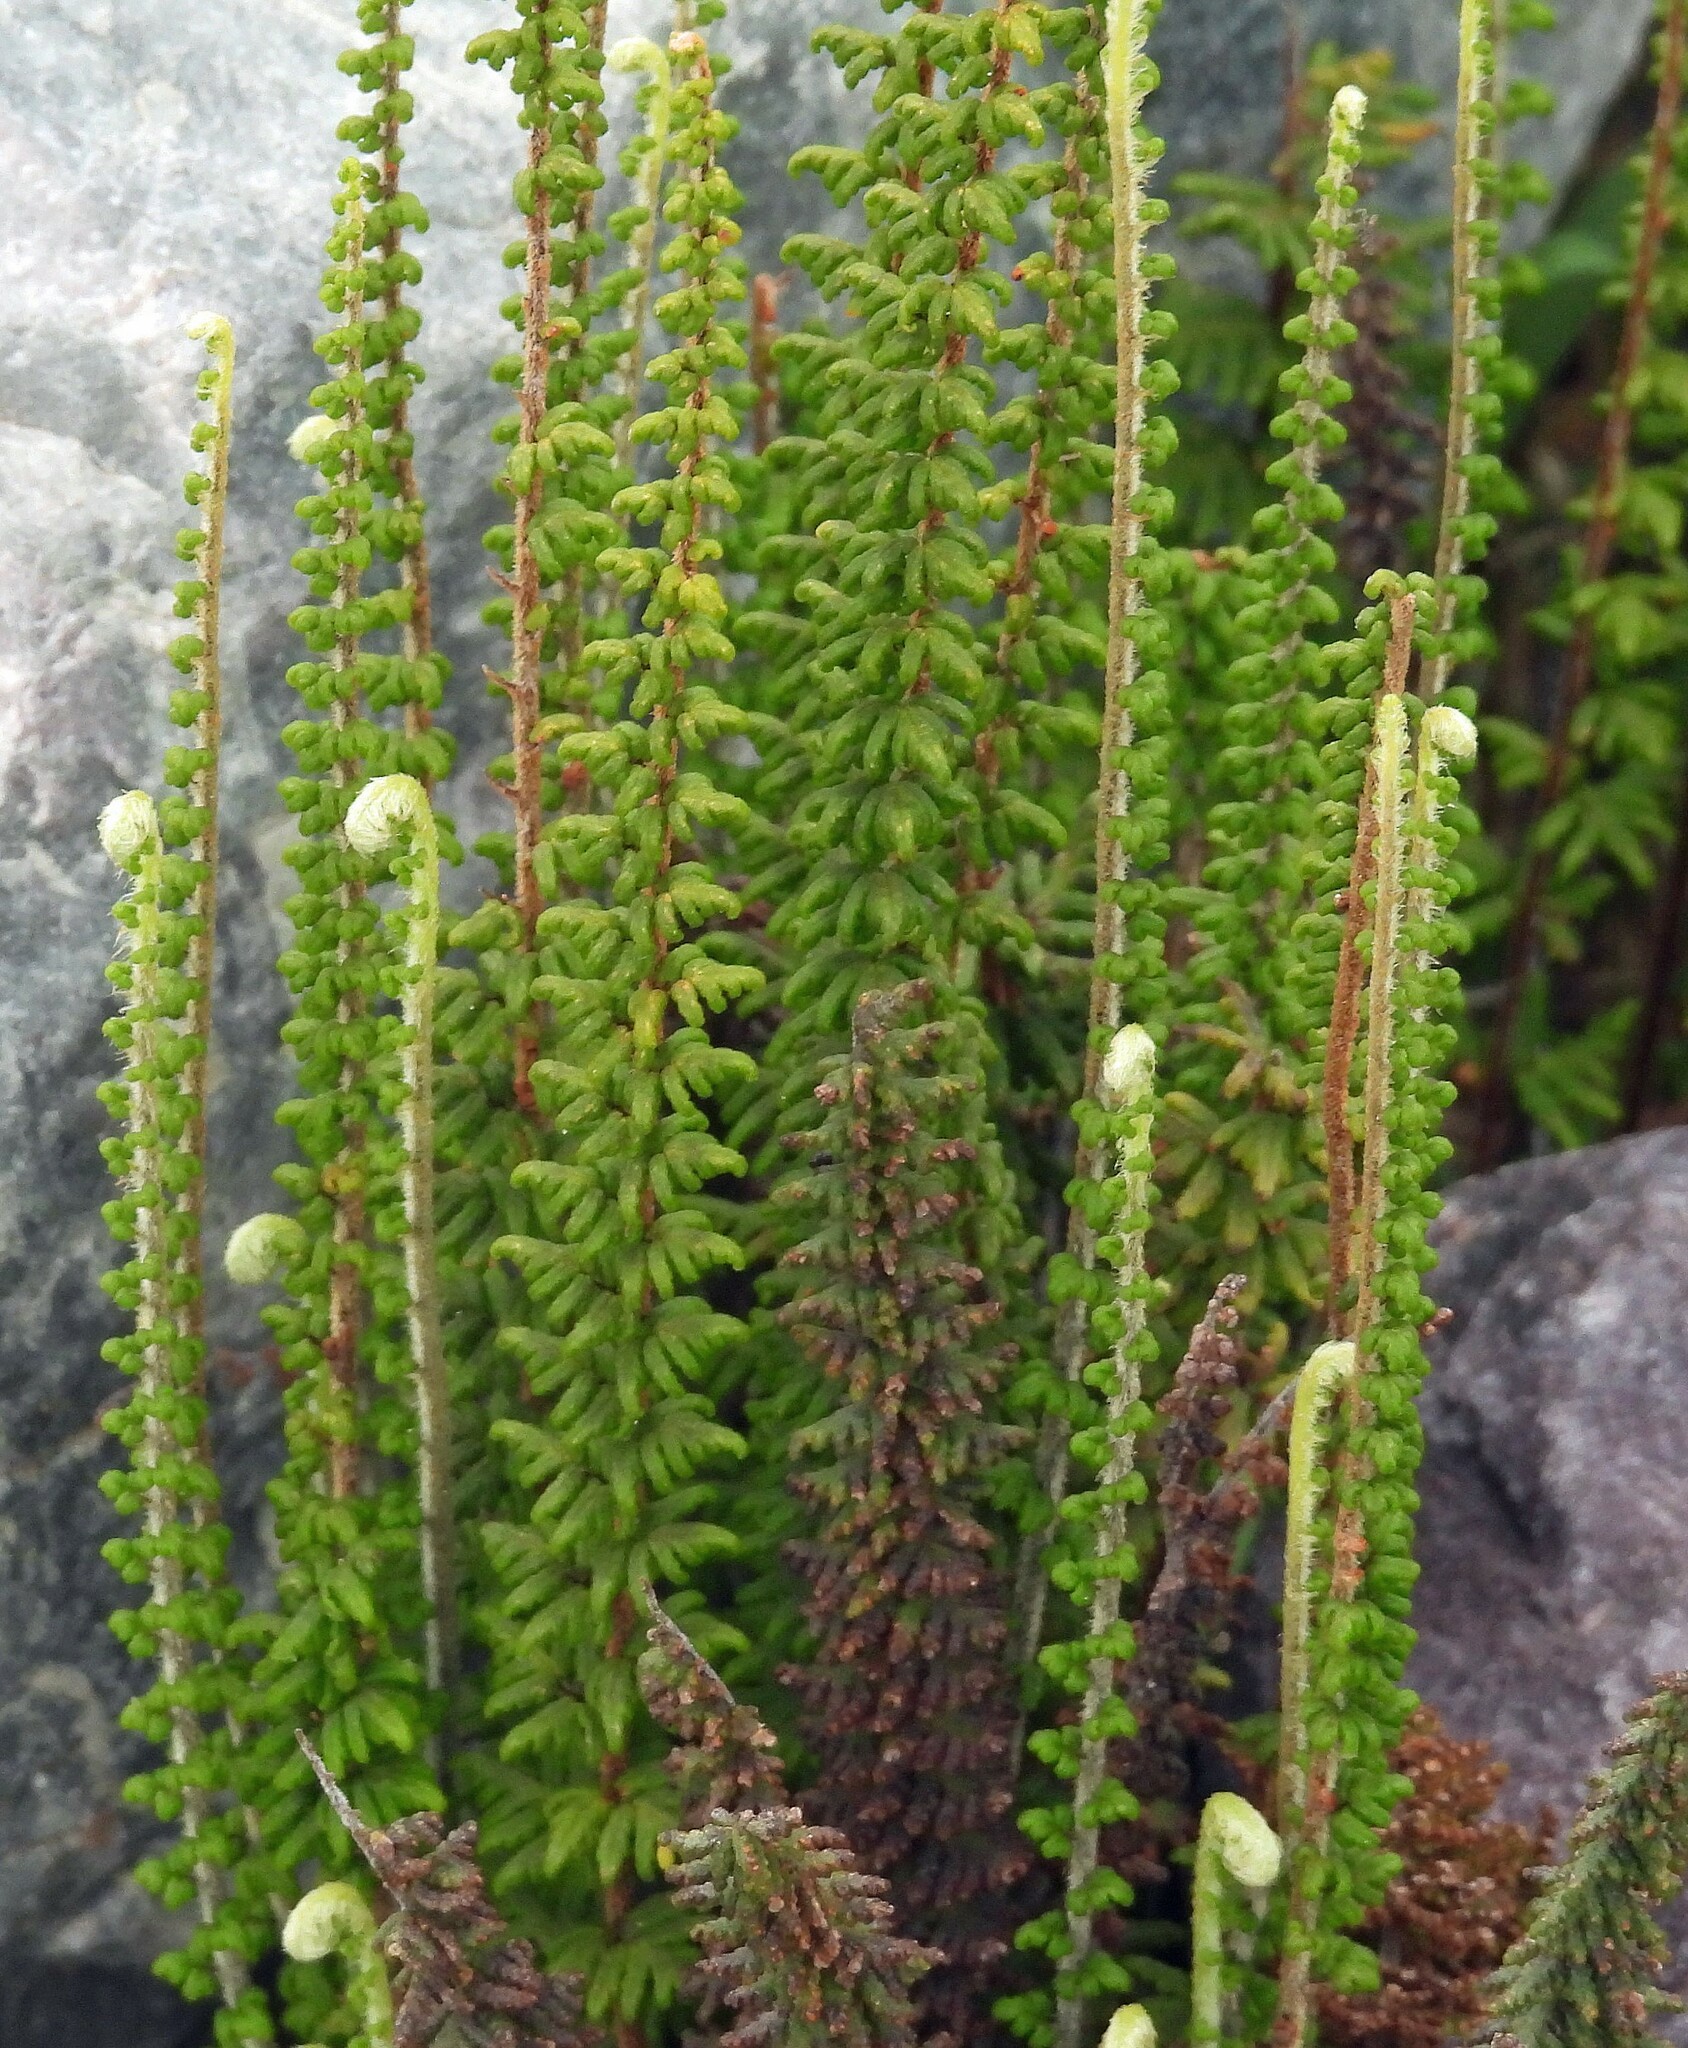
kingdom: Plantae
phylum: Tracheophyta
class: Polypodiopsida
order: Polypodiales
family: Pteridaceae
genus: Cheilanthes
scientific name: Cheilanthes pruinata
